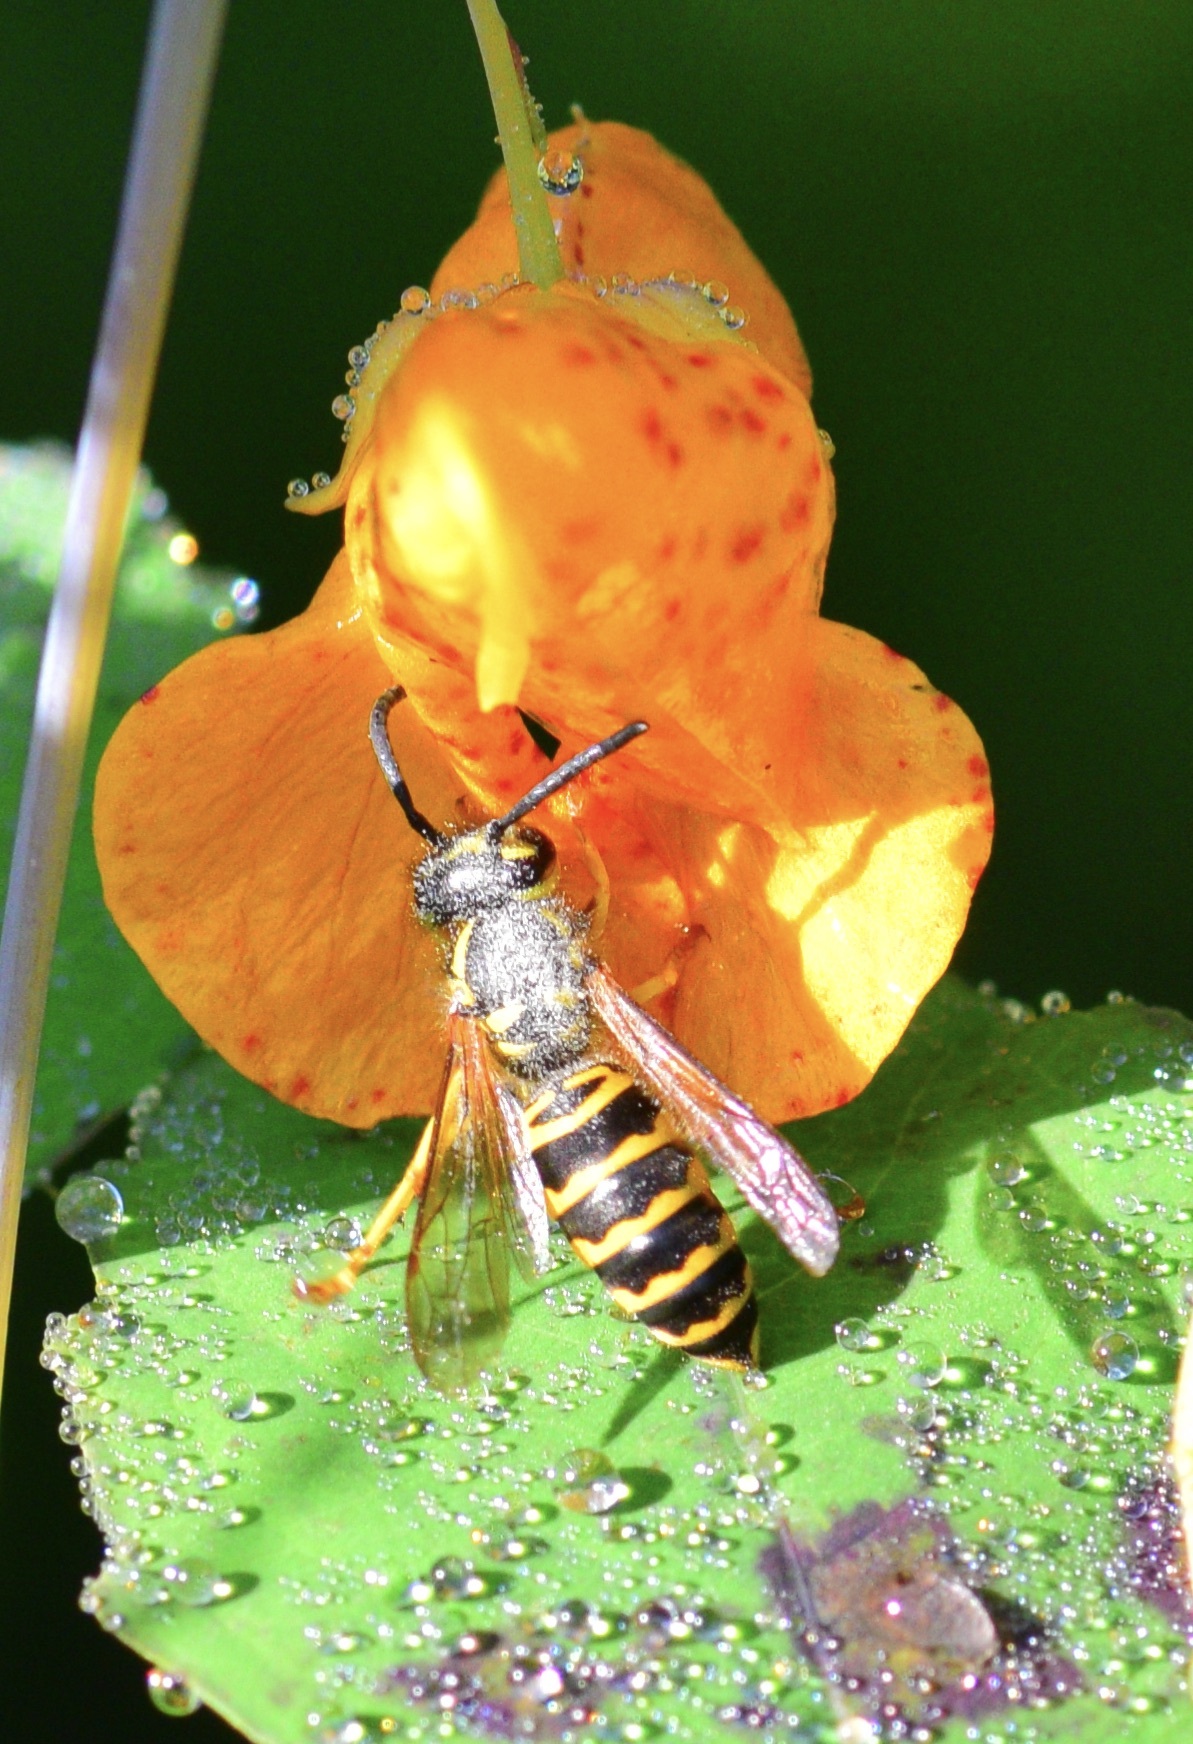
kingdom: Animalia
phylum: Arthropoda
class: Insecta
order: Hymenoptera
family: Vespidae
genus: Vespula
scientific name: Vespula maculifrons
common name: Eastern yellowjacket
